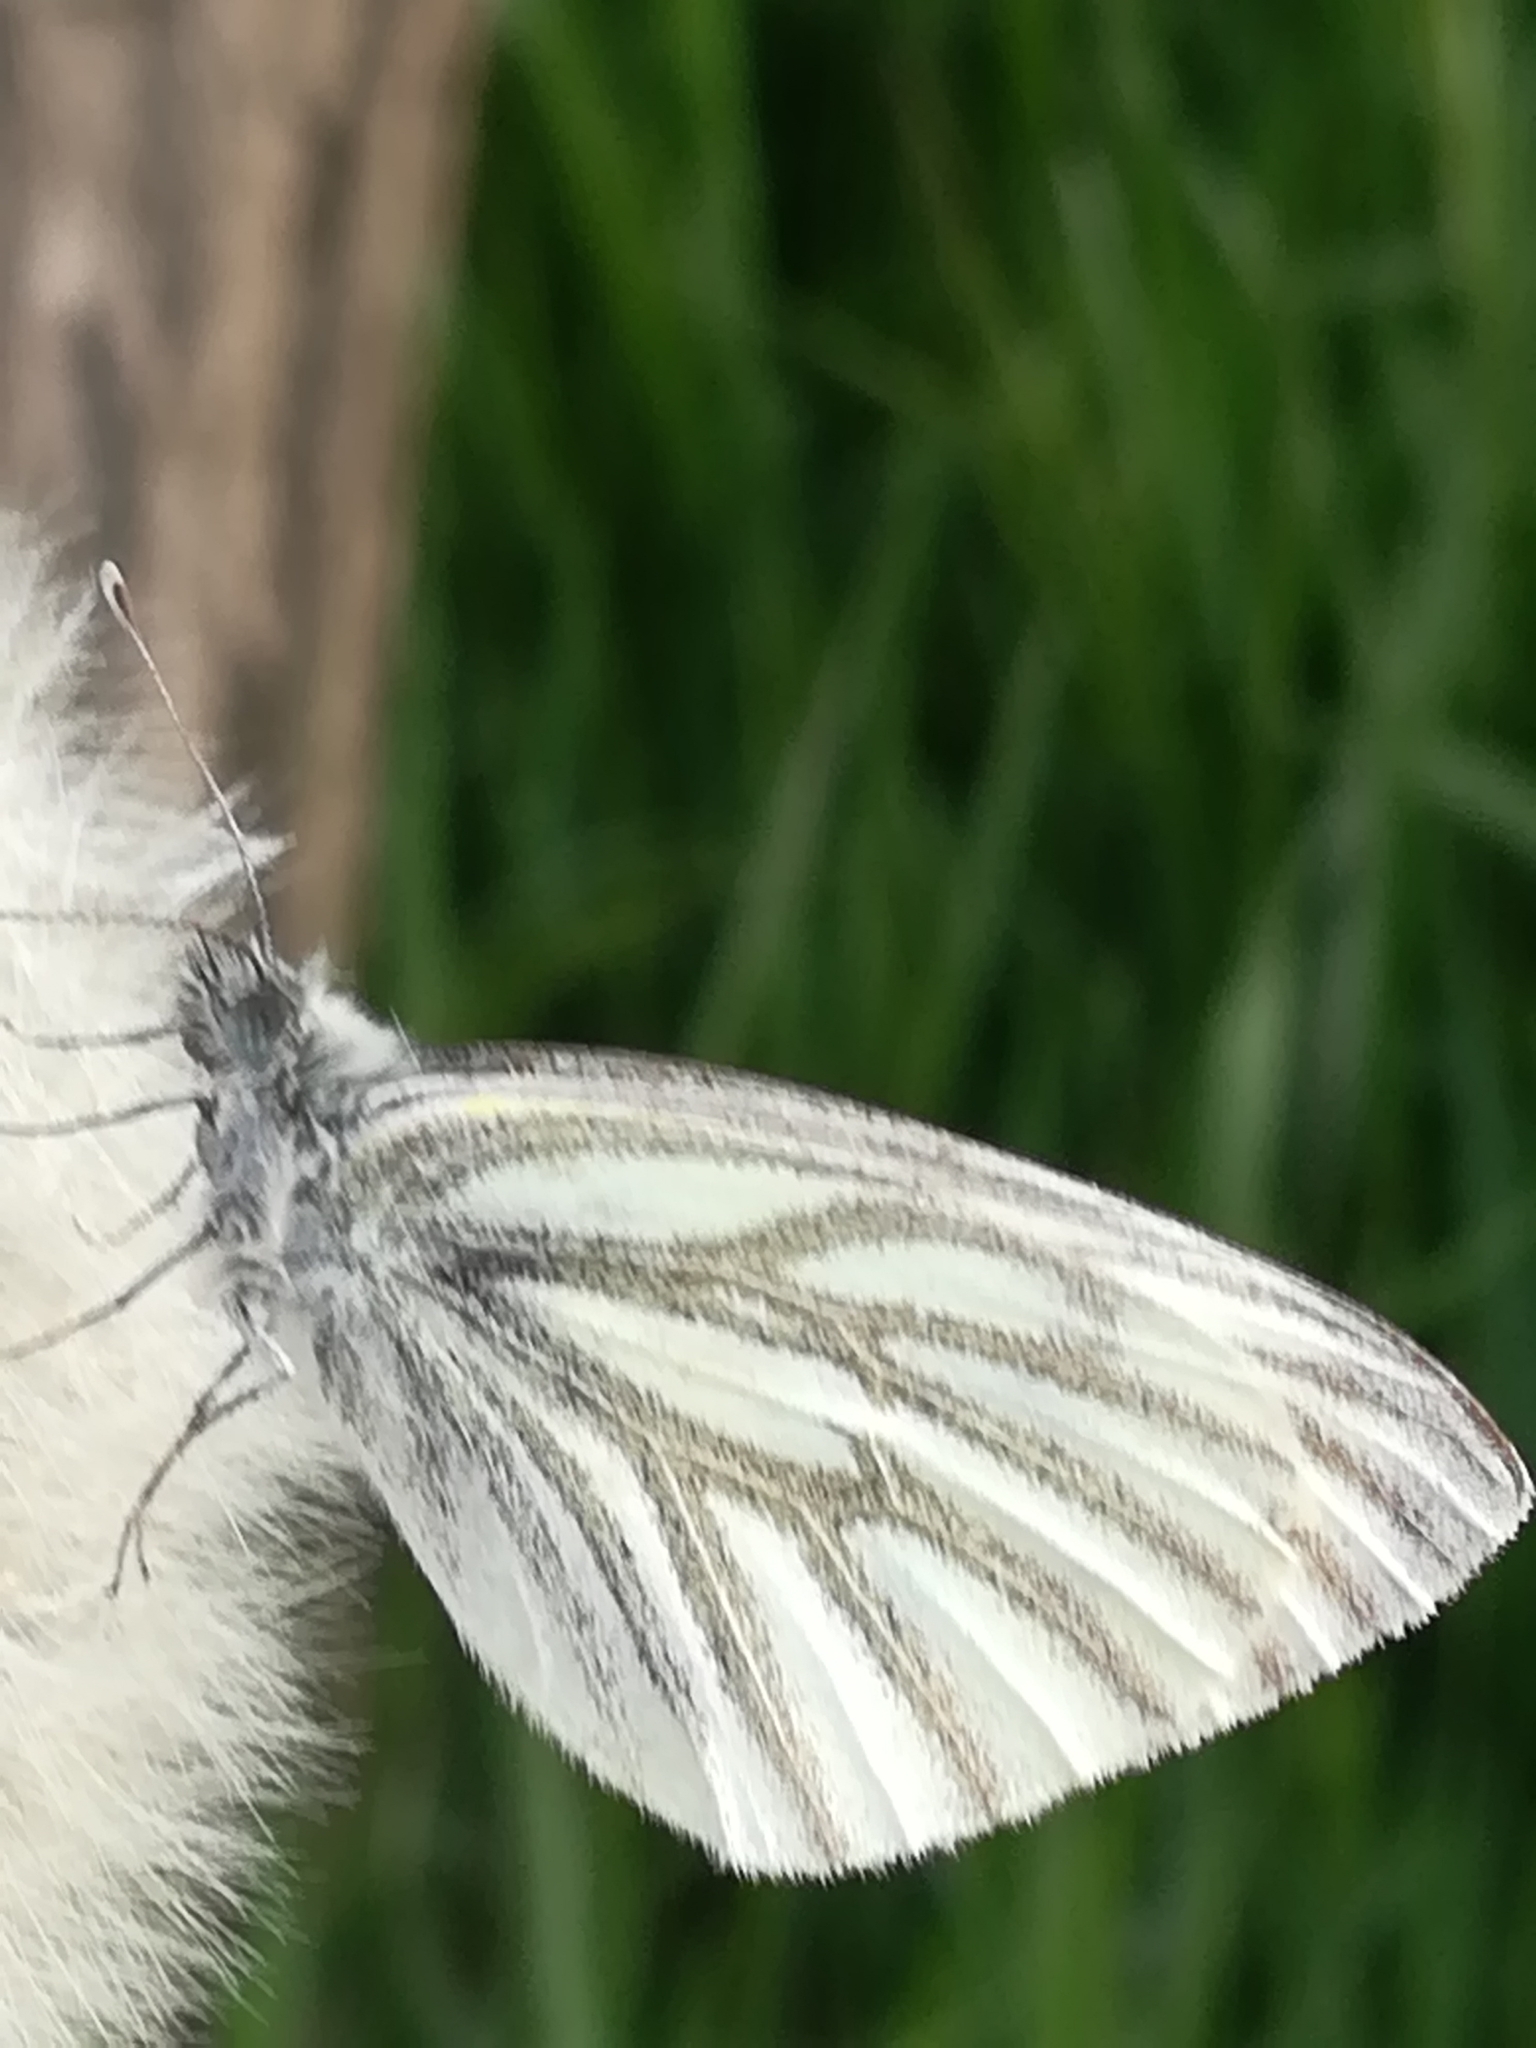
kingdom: Animalia
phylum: Arthropoda
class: Insecta
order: Lepidoptera
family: Pieridae
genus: Pieris
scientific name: Pieris napi
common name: Green-veined white
